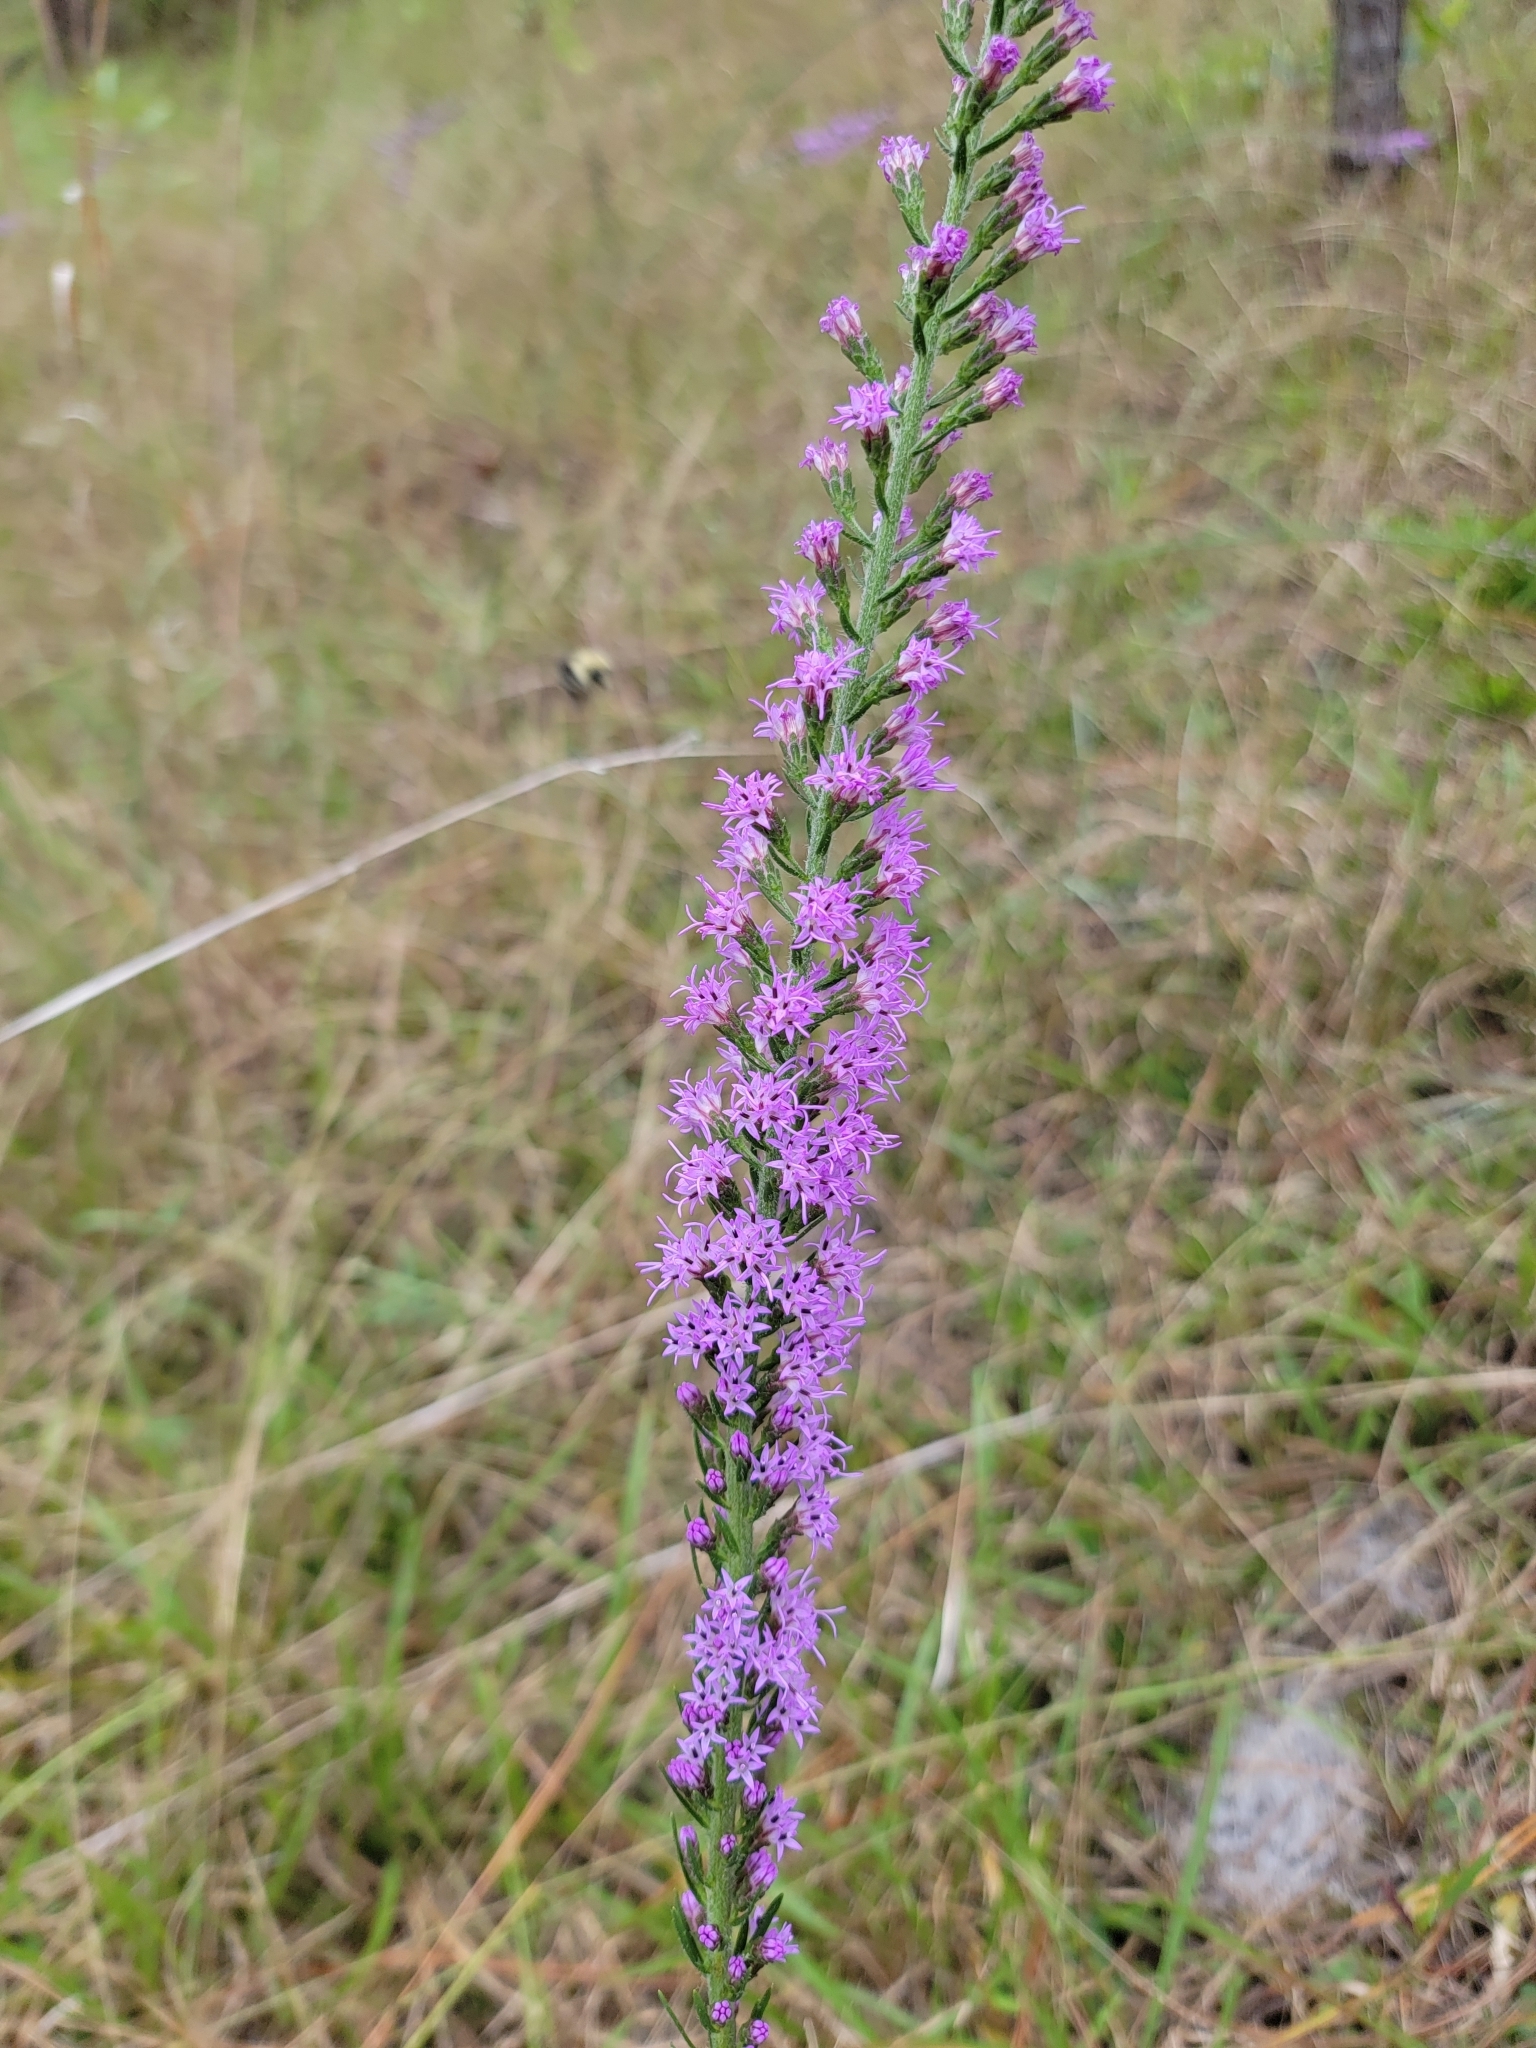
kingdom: Plantae
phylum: Tracheophyta
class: Magnoliopsida
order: Asterales
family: Asteraceae
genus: Liatris
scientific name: Liatris gracilis
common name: Slender gayfeather
